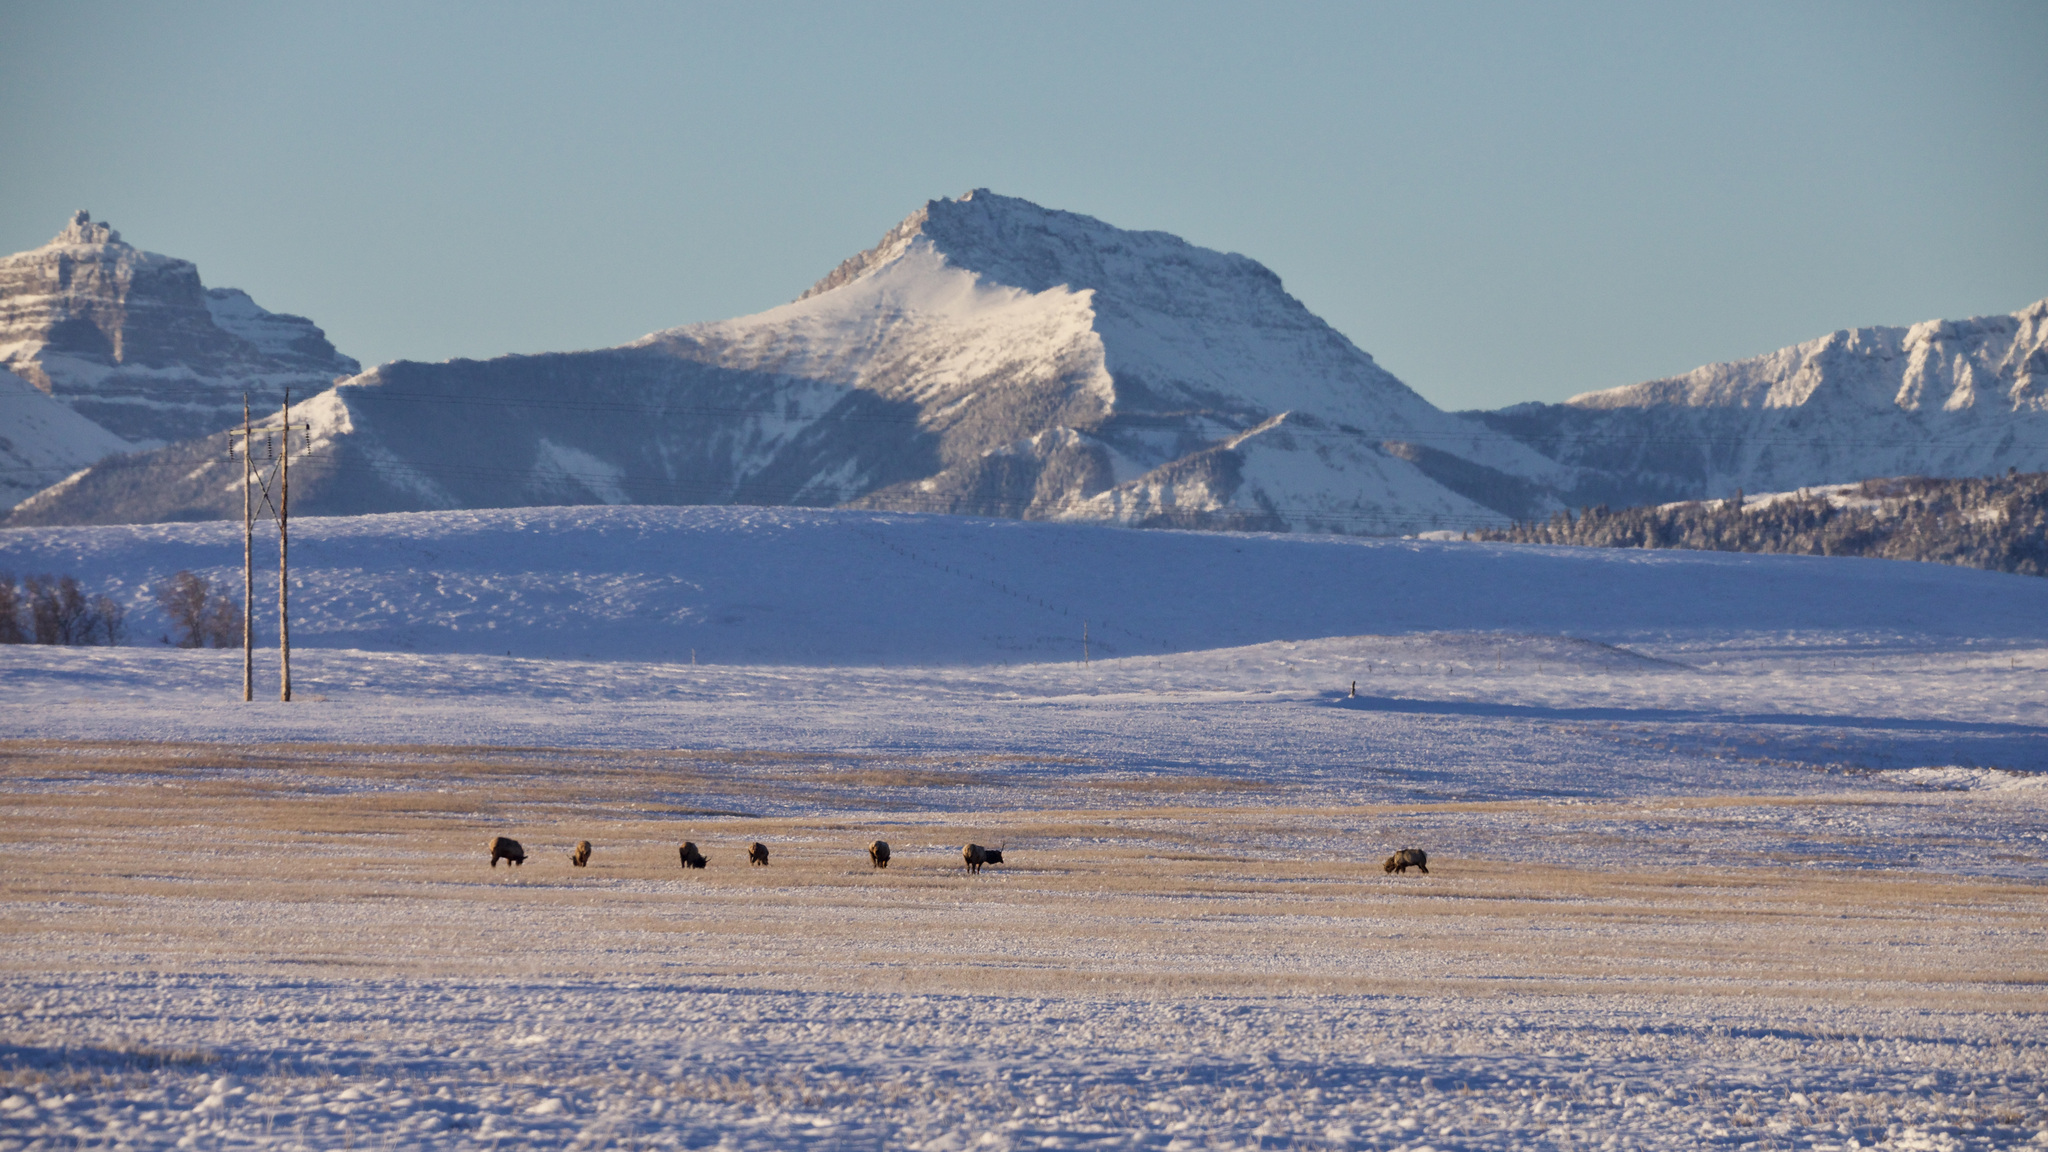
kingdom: Animalia
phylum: Chordata
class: Mammalia
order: Artiodactyla
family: Cervidae
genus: Cervus
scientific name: Cervus elaphus
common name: Red deer
